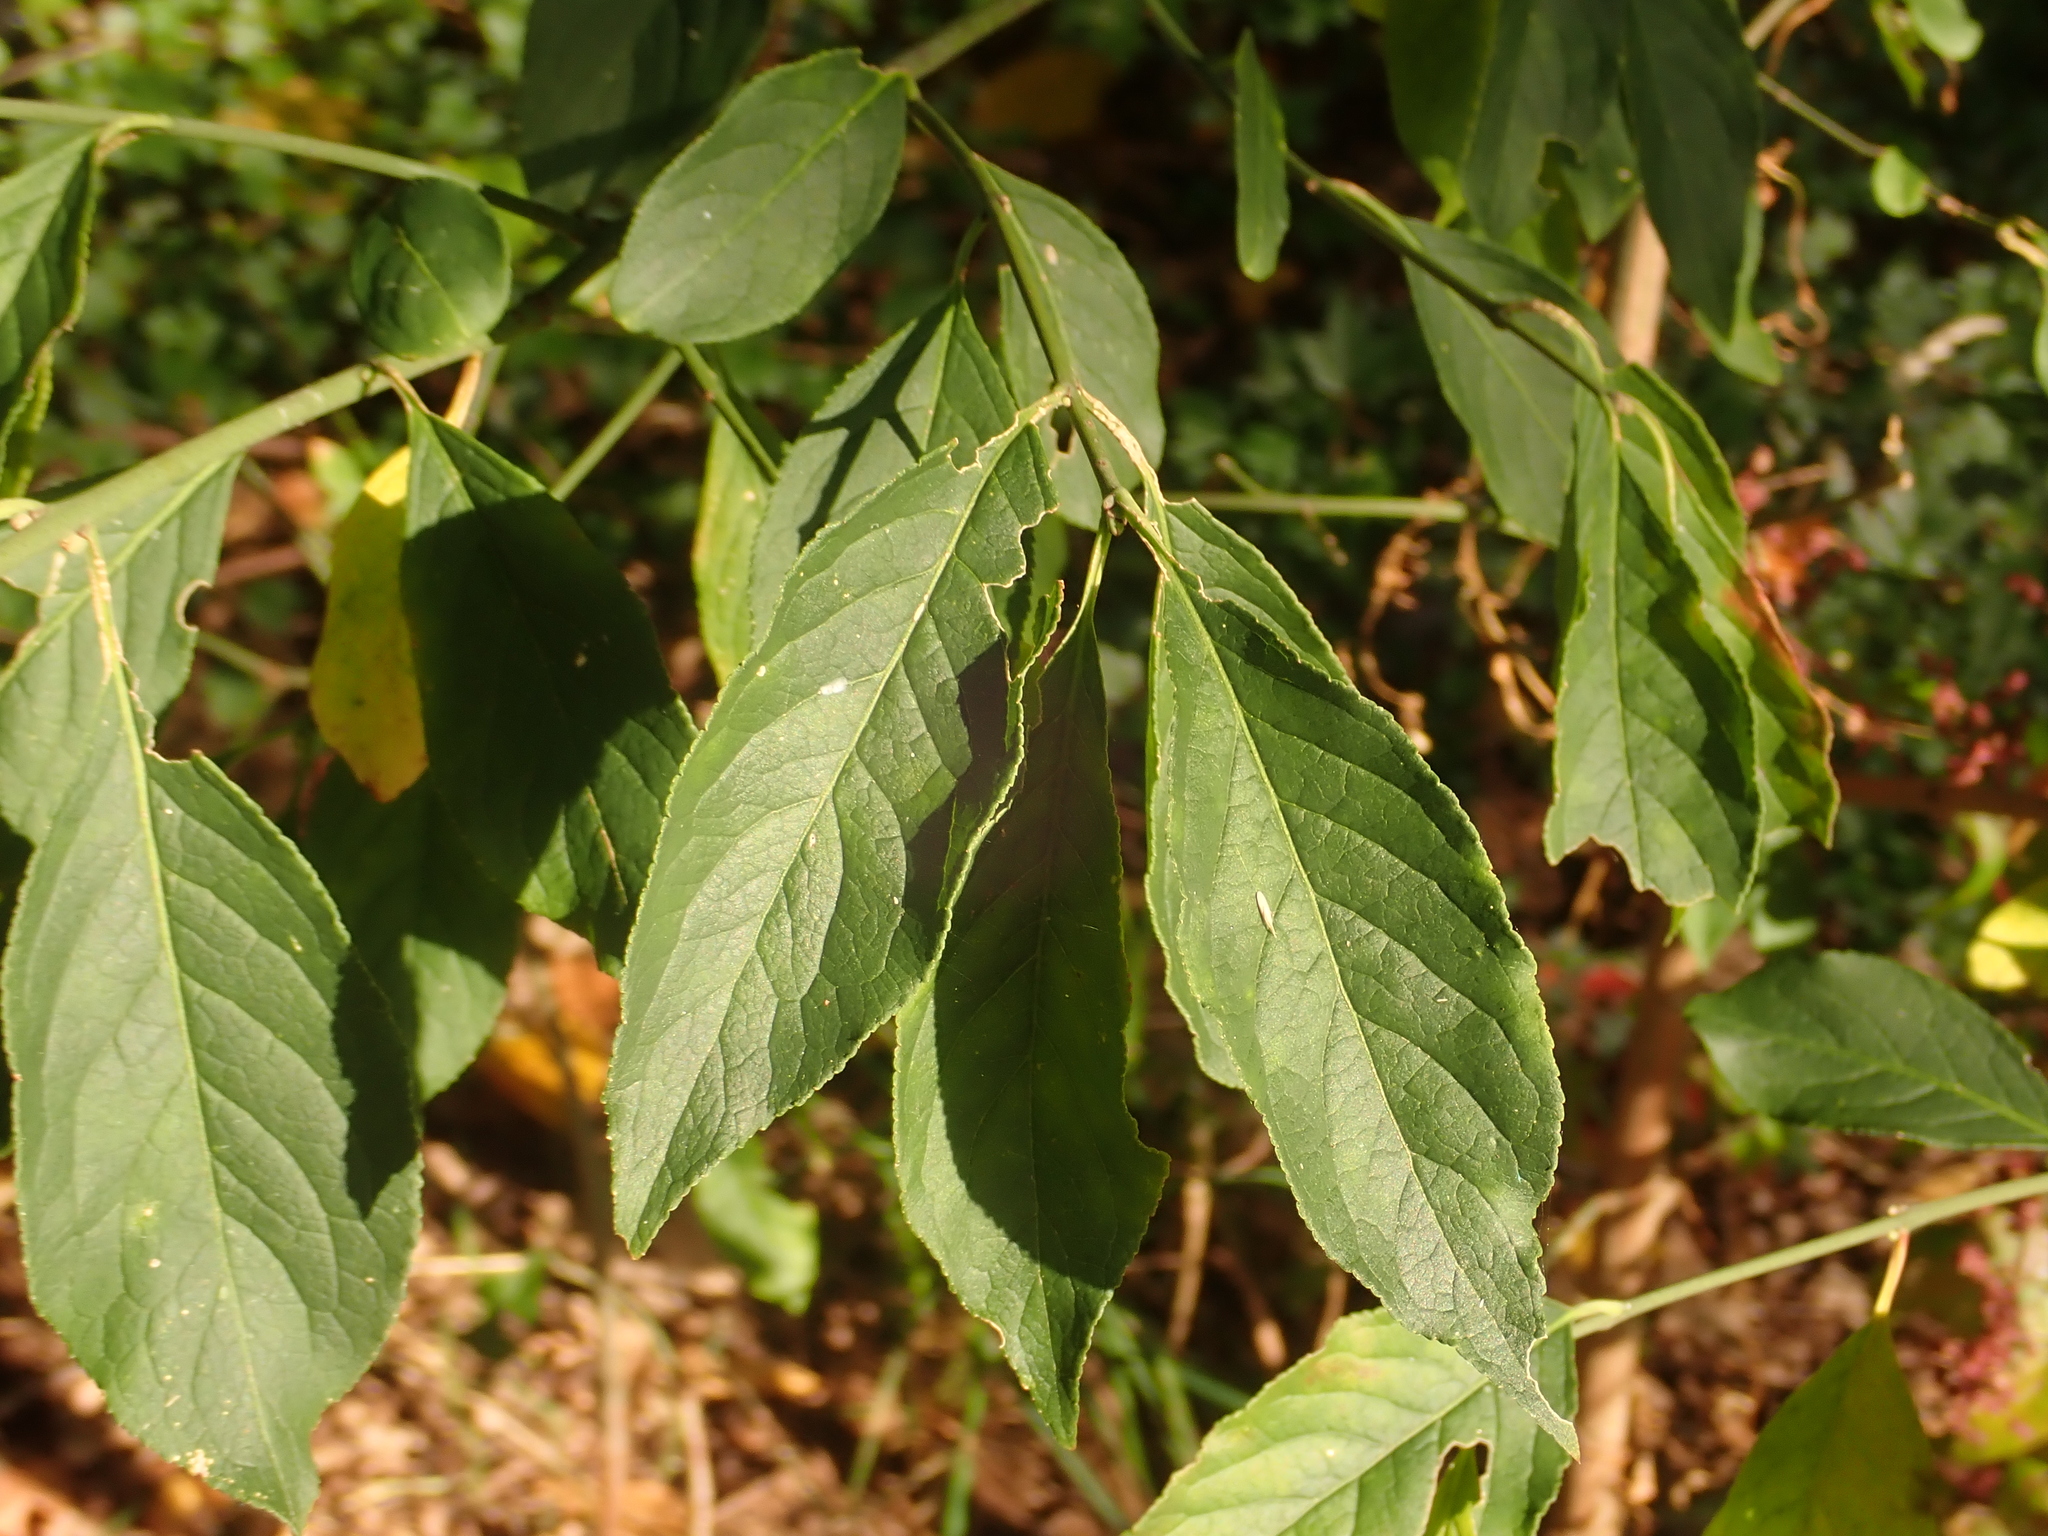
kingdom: Plantae
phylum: Tracheophyta
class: Magnoliopsida
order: Celastrales
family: Celastraceae
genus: Euonymus
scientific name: Euonymus europaeus
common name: Spindle
